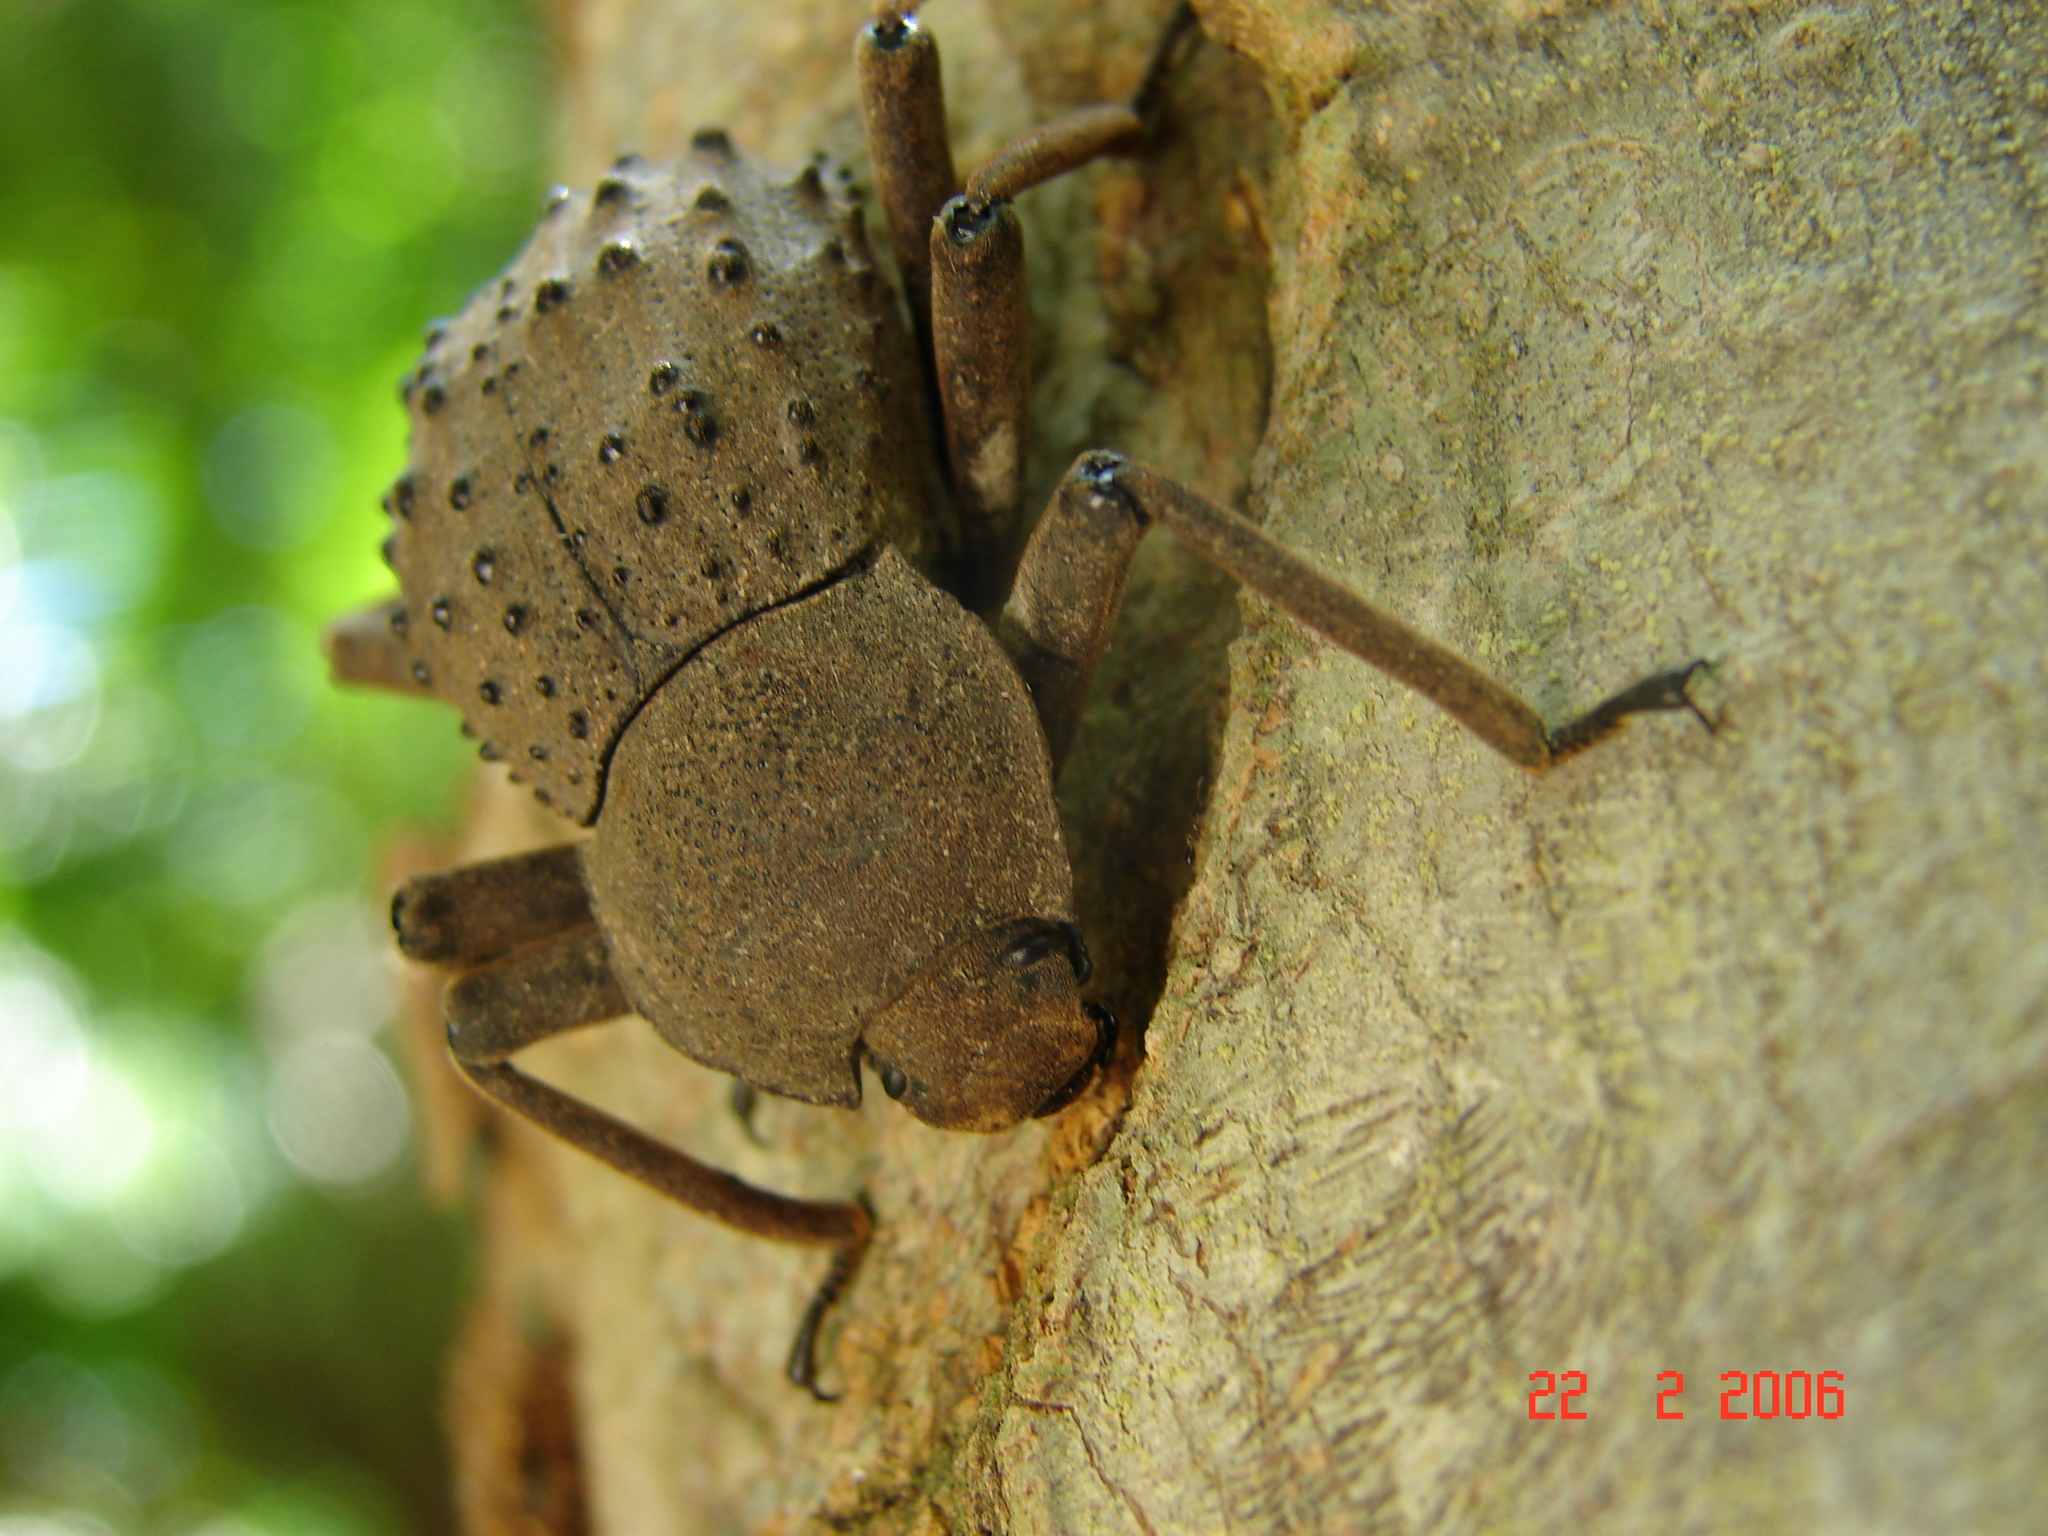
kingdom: Animalia
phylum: Arthropoda
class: Insecta
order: Coleoptera
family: Tenebrionidae
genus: Polposipus
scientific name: Polposipus herculeanus
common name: Fregate island giant tenebrionid beetle
